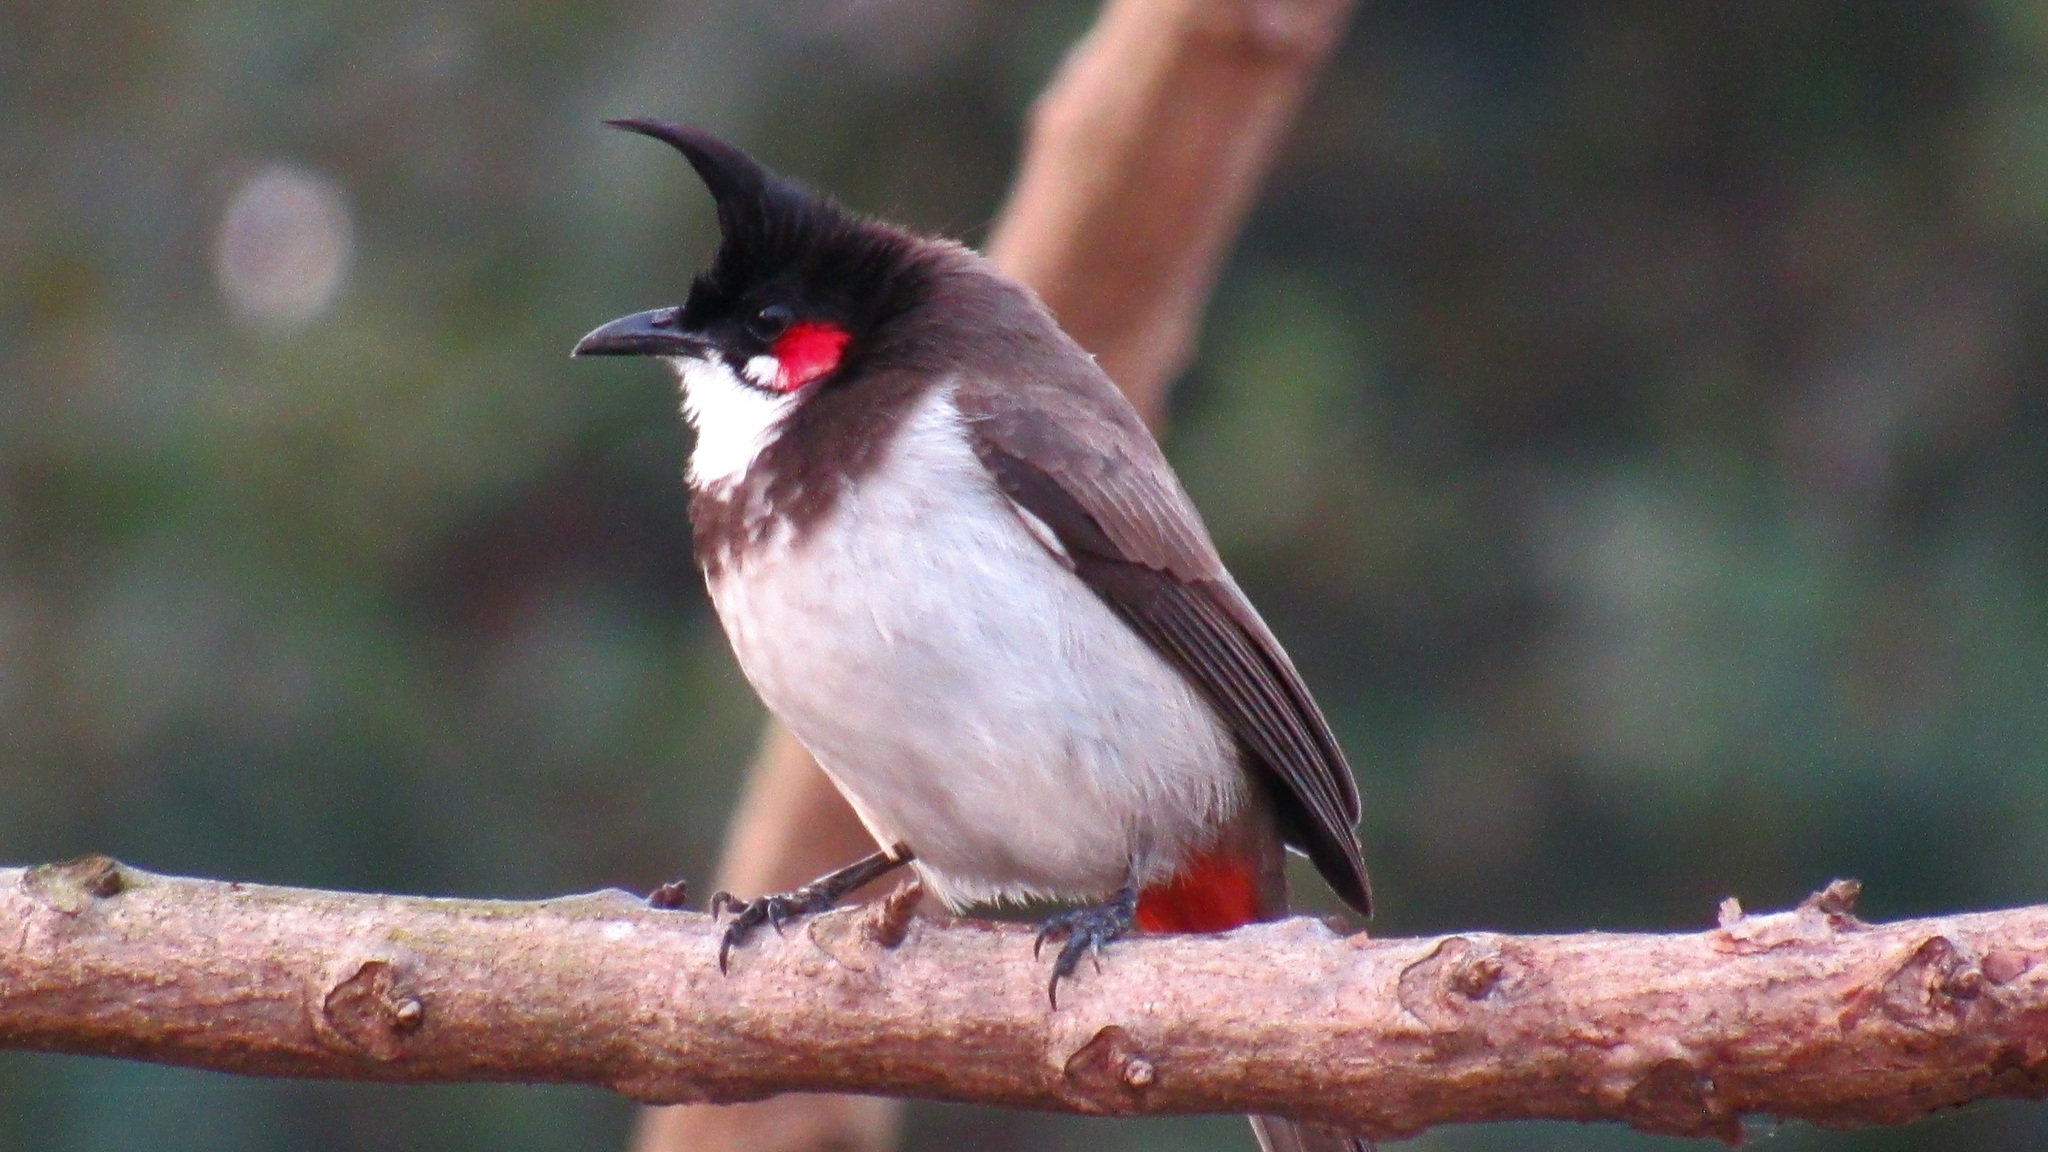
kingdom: Animalia
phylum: Chordata
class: Aves
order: Passeriformes
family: Pycnonotidae
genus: Pycnonotus
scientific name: Pycnonotus jocosus
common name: Red-whiskered bulbul
